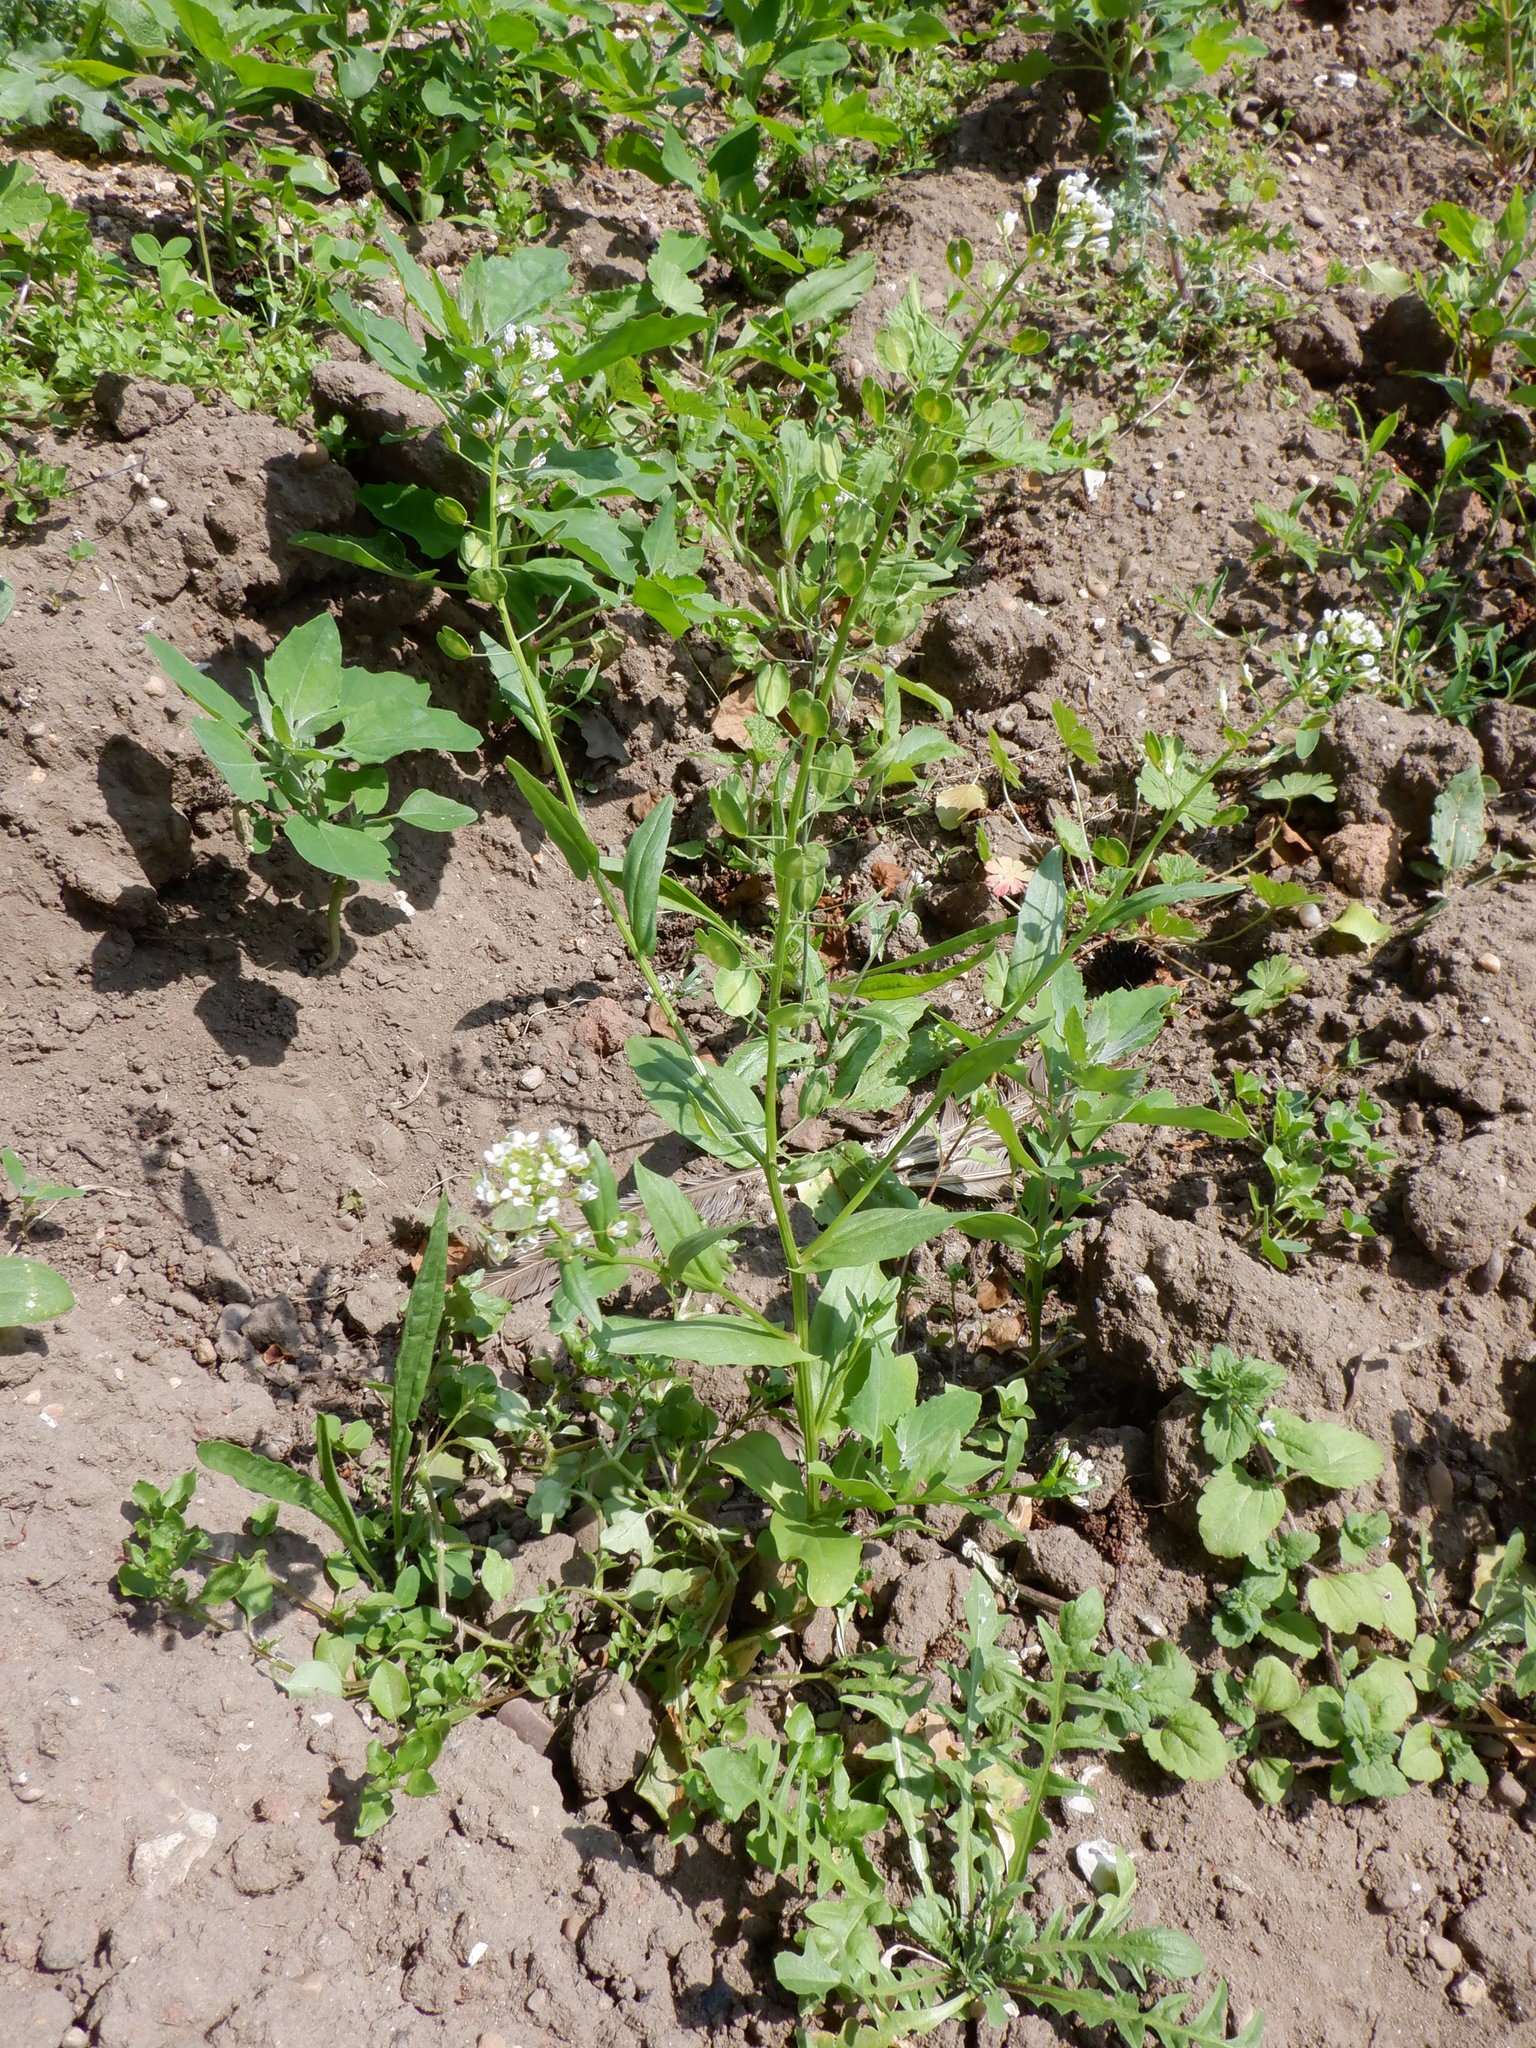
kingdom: Plantae
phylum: Tracheophyta
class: Magnoliopsida
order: Brassicales
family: Brassicaceae
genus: Thlaspi
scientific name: Thlaspi arvense
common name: Field pennycress
